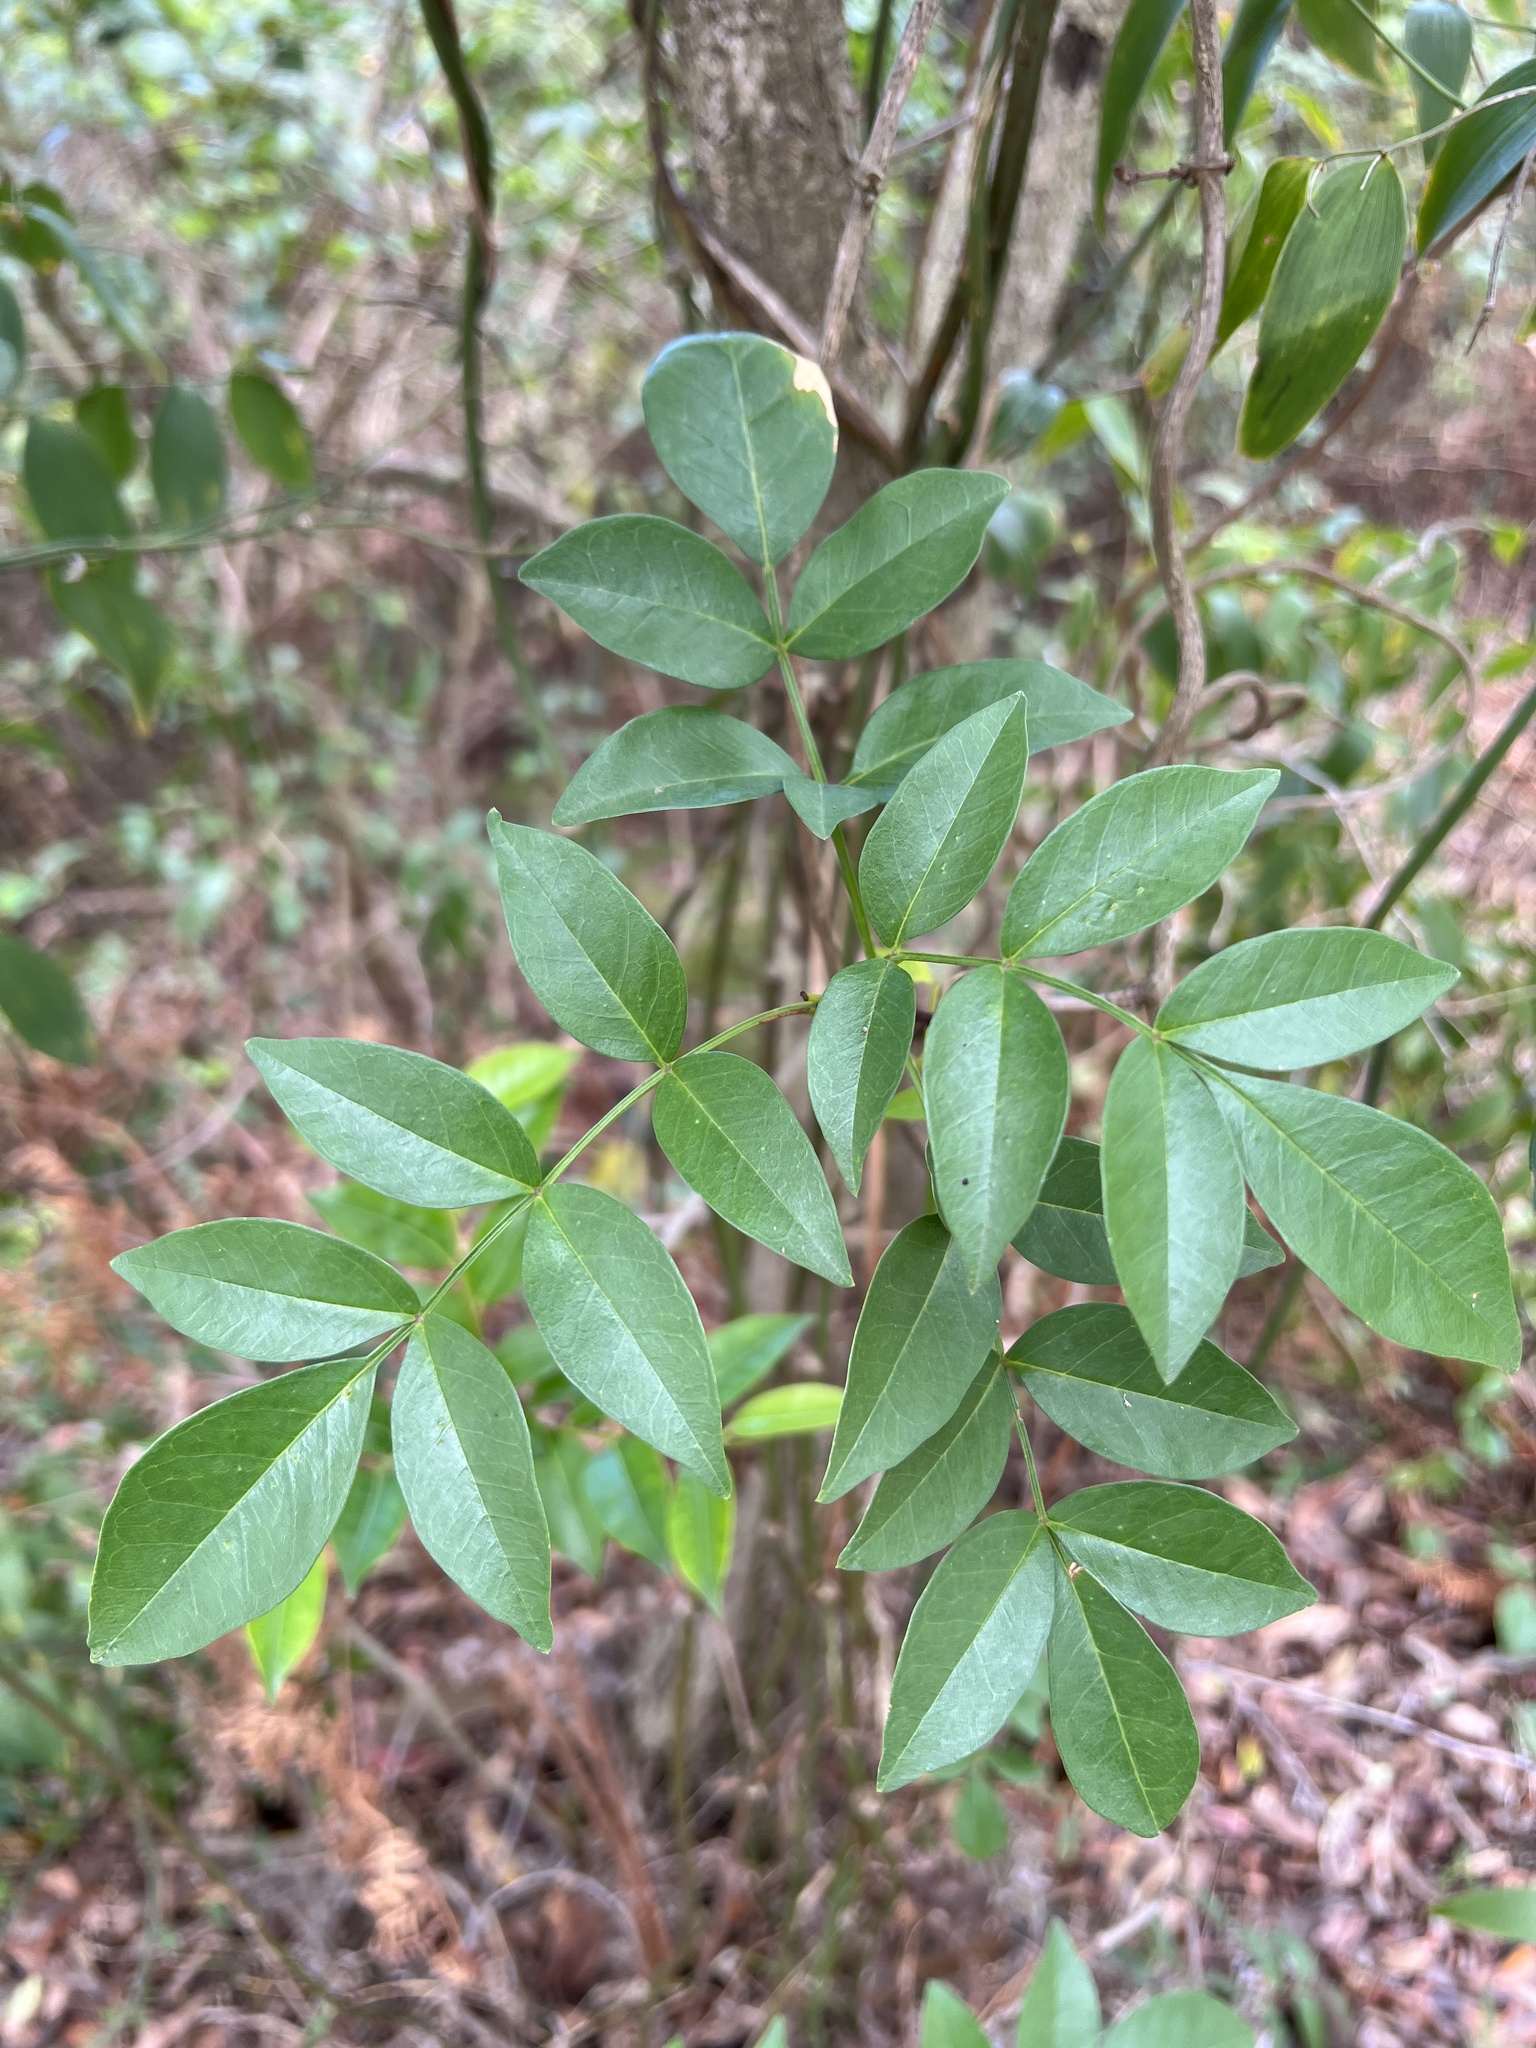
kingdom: Plantae
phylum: Tracheophyta
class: Liliopsida
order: Asparagales
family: Asparagaceae
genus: Eustrephus
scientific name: Eustrephus latifolius
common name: Orangevine
